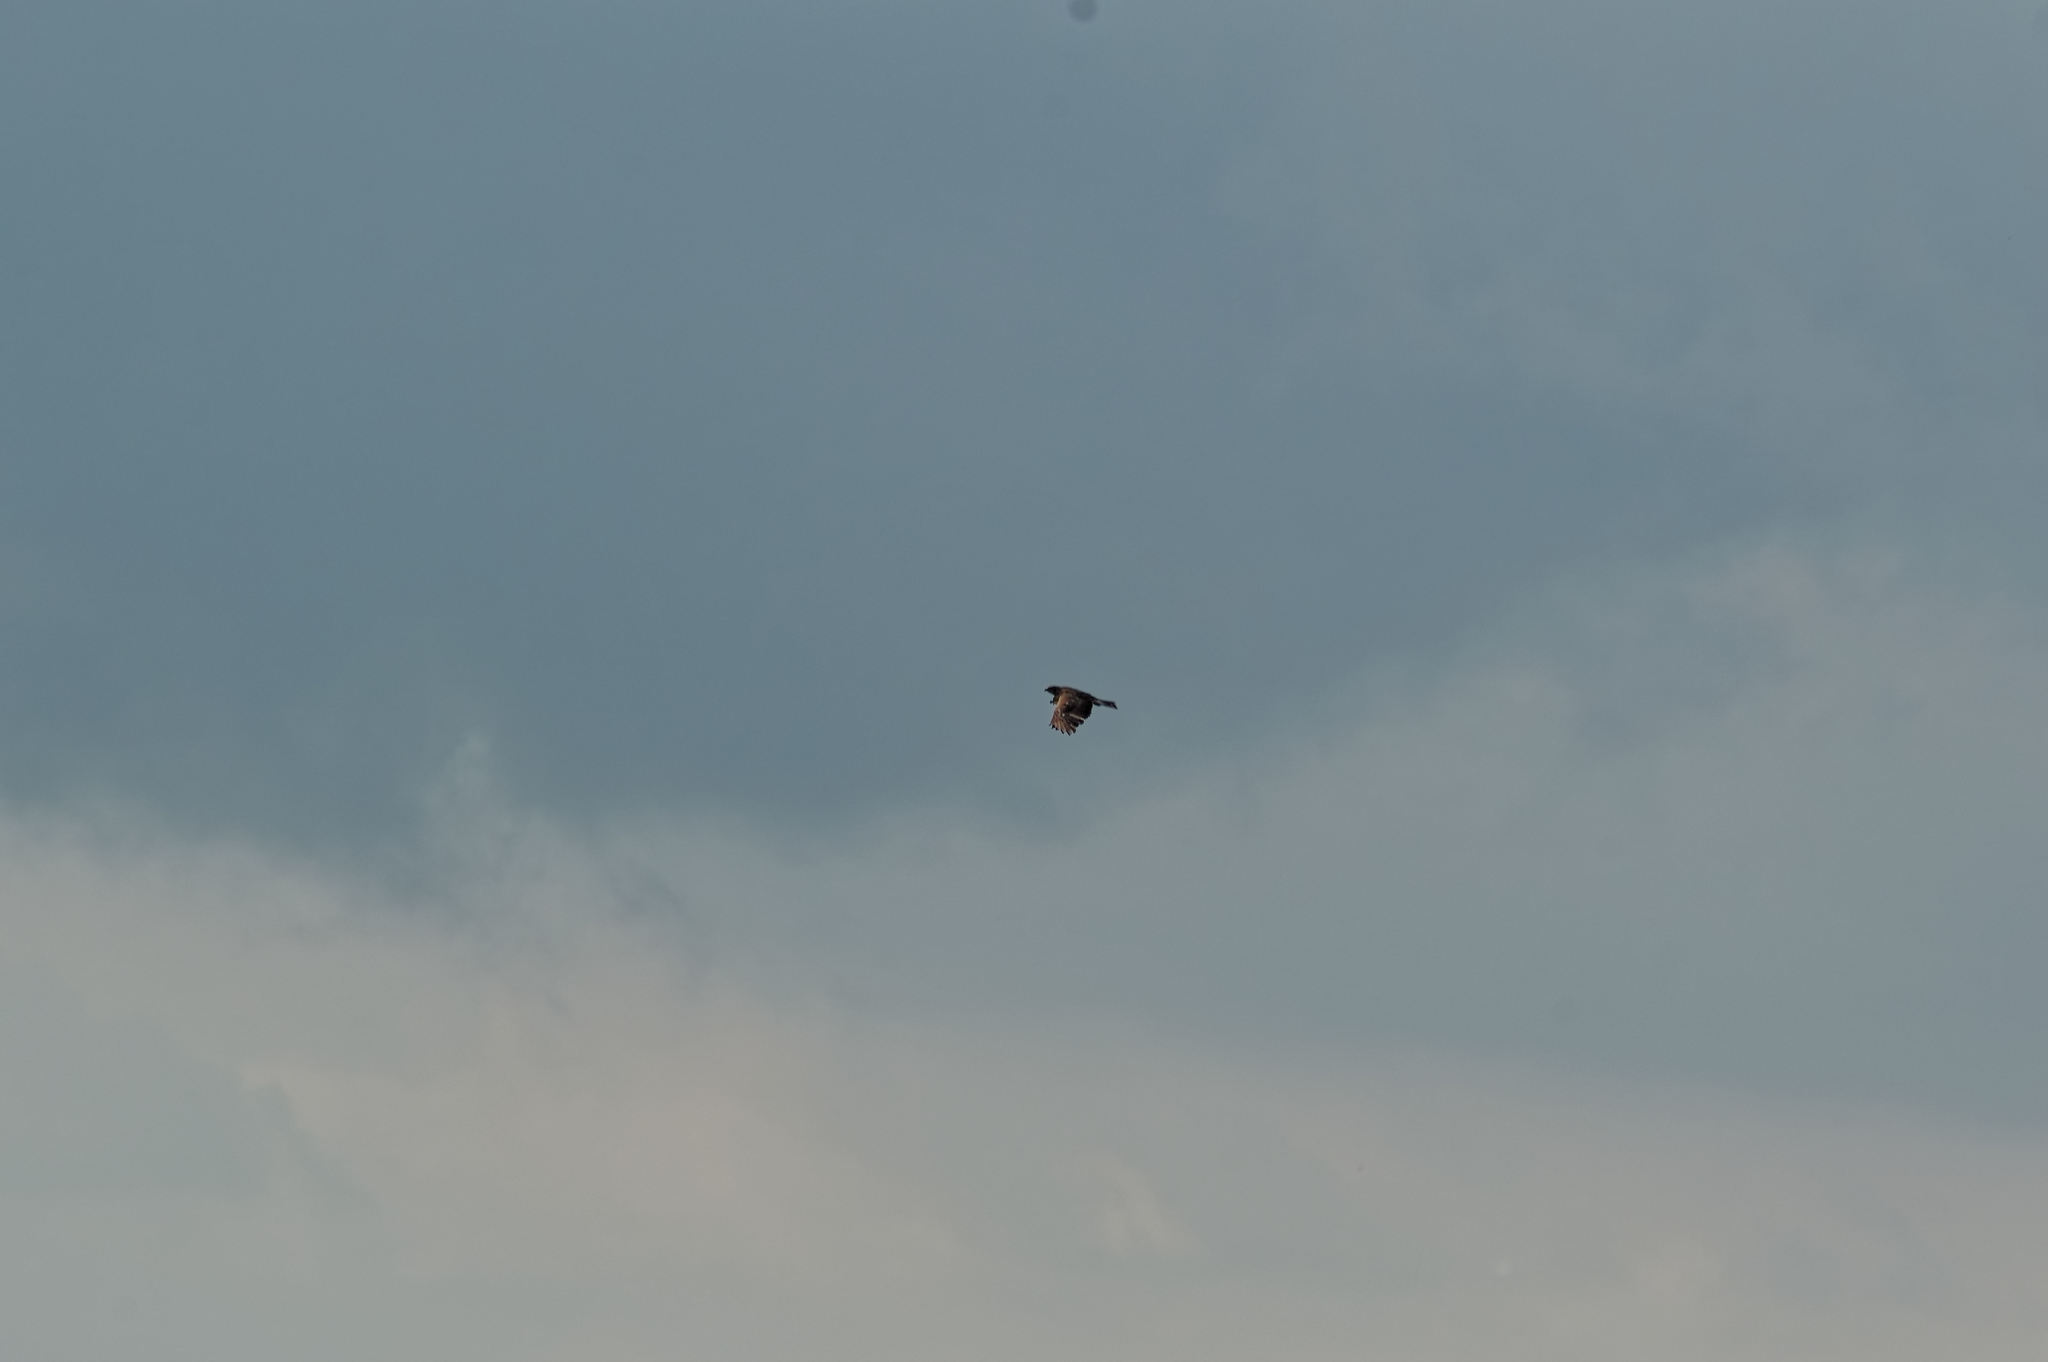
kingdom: Animalia
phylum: Chordata
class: Aves
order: Accipitriformes
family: Accipitridae
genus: Buteo
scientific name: Buteo buteo
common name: Common buzzard
